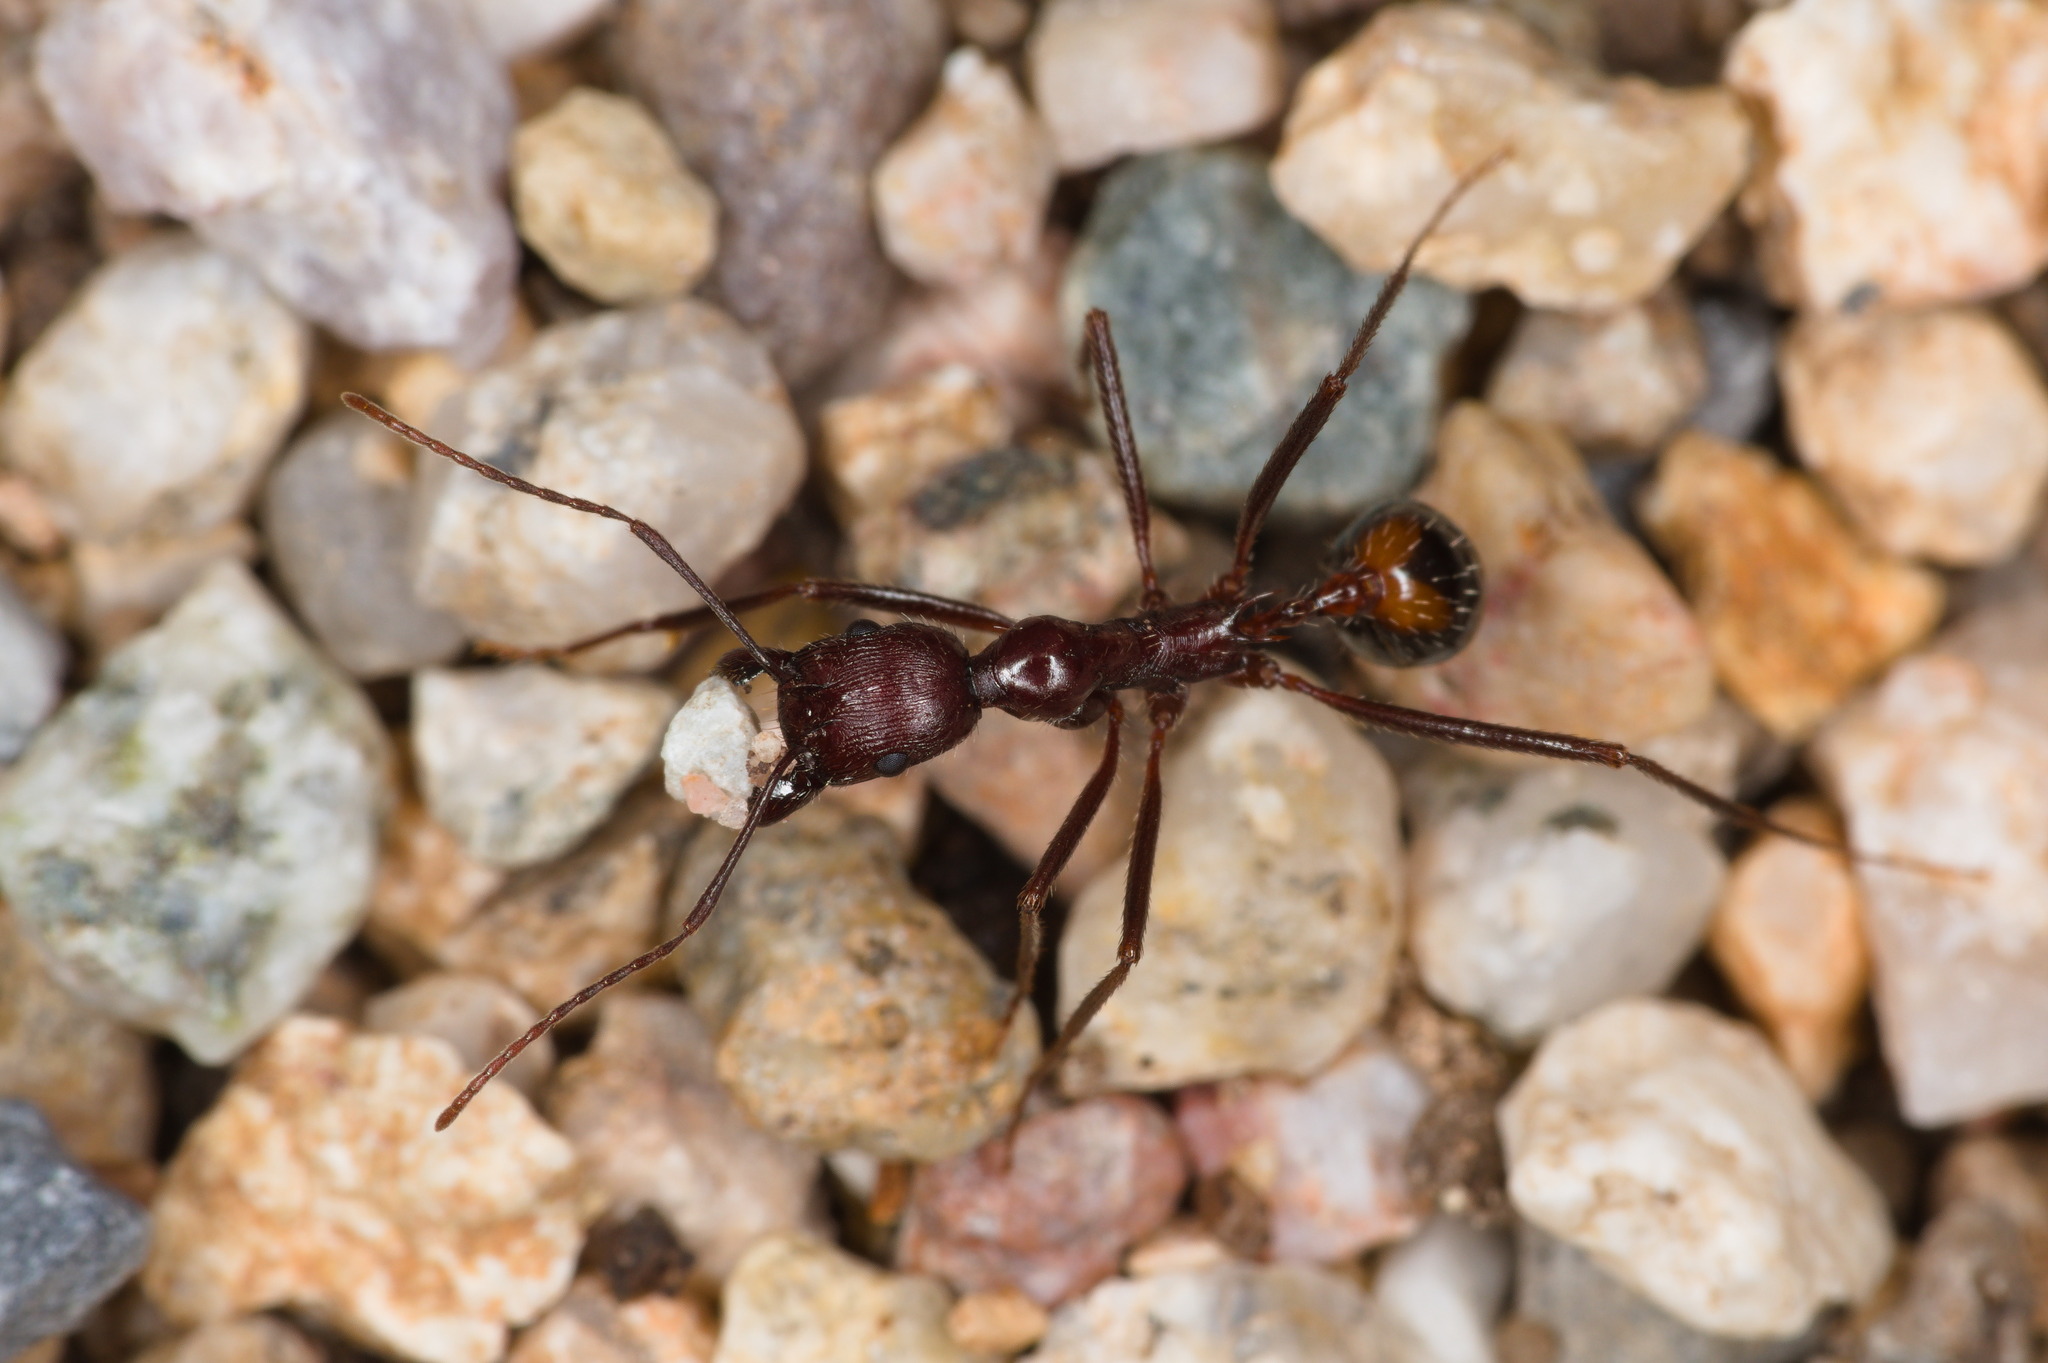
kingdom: Animalia
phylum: Arthropoda
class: Insecta
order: Hymenoptera
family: Formicidae
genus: Novomessor
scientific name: Novomessor cockerelli
